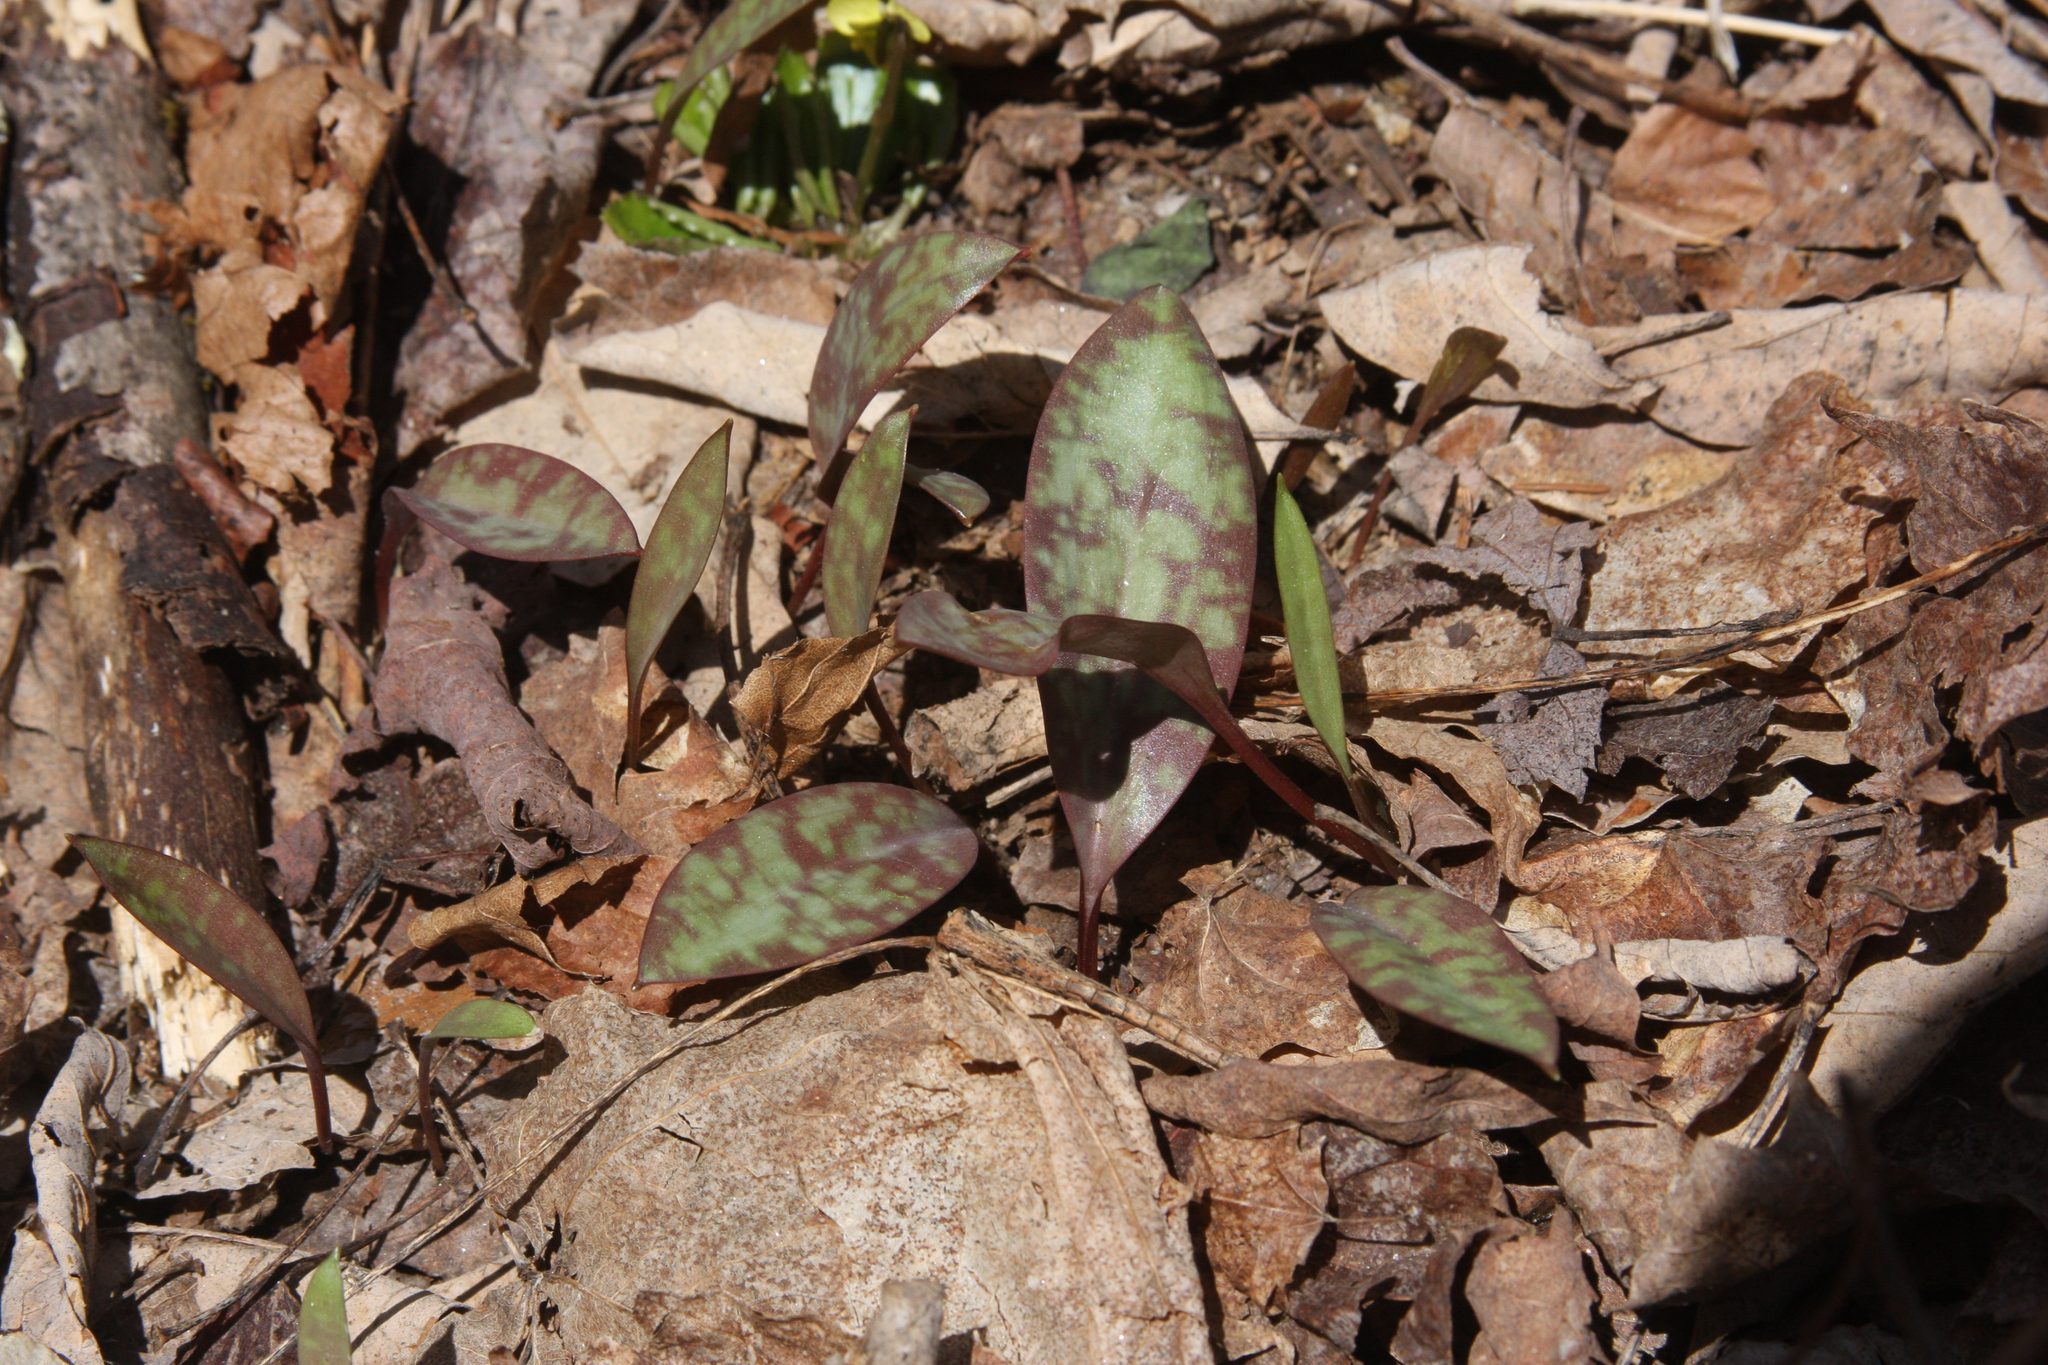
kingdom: Plantae
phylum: Tracheophyta
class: Liliopsida
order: Liliales
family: Liliaceae
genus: Erythronium
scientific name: Erythronium americanum
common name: Yellow adder's-tongue
